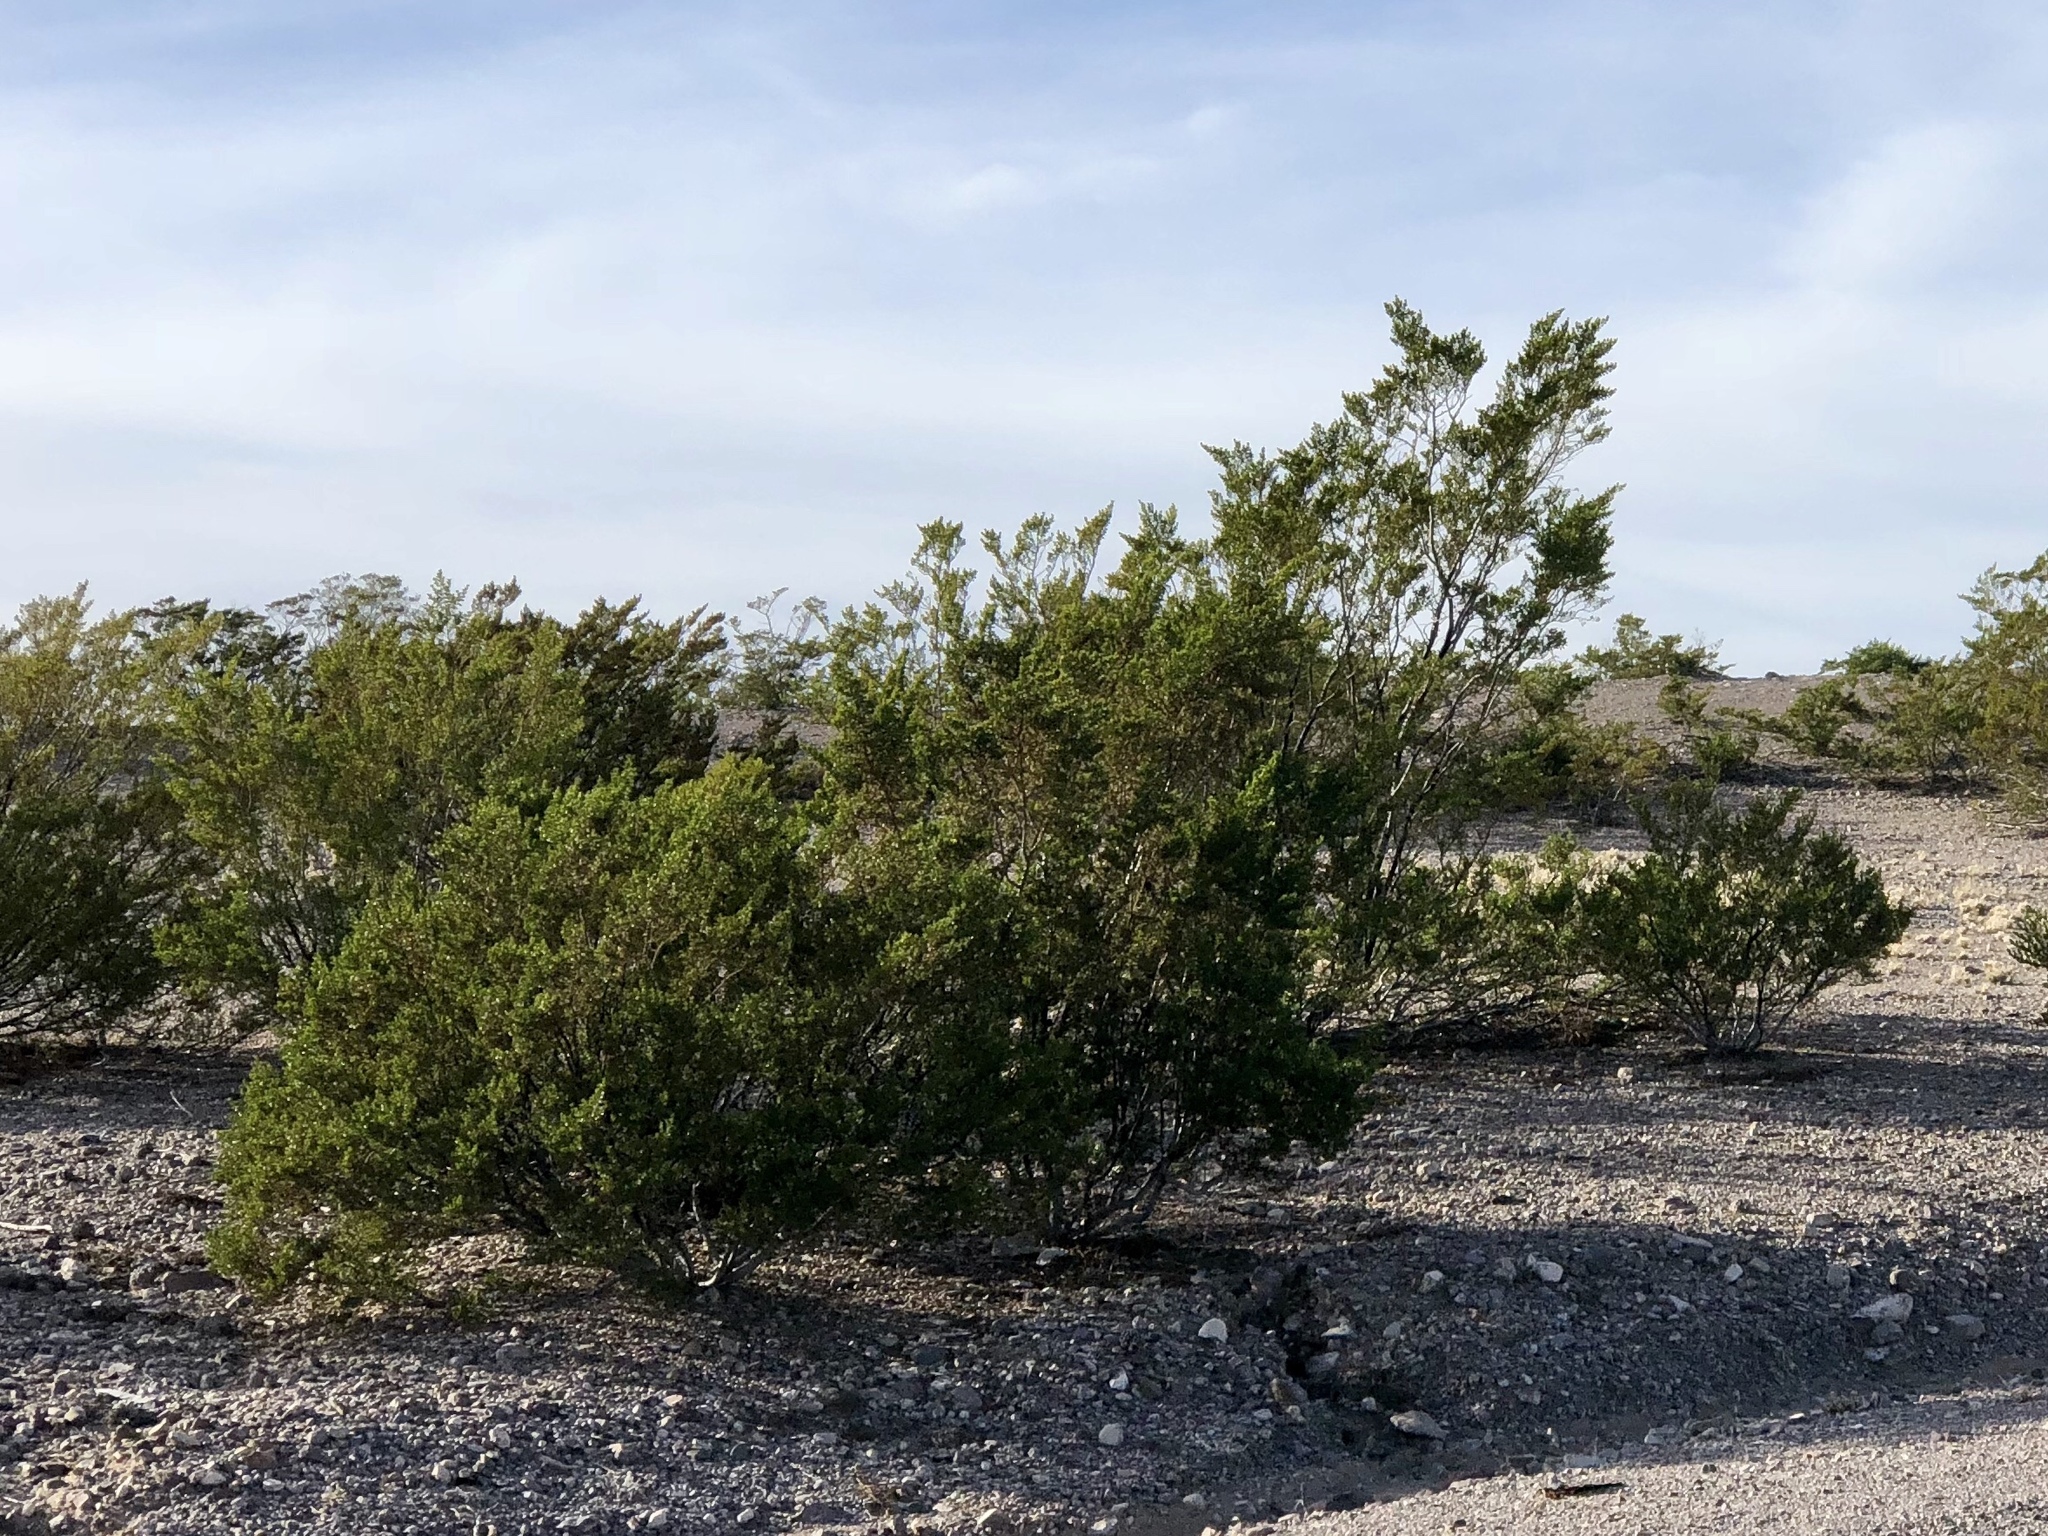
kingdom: Plantae
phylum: Tracheophyta
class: Magnoliopsida
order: Zygophyllales
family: Zygophyllaceae
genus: Larrea
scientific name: Larrea tridentata
